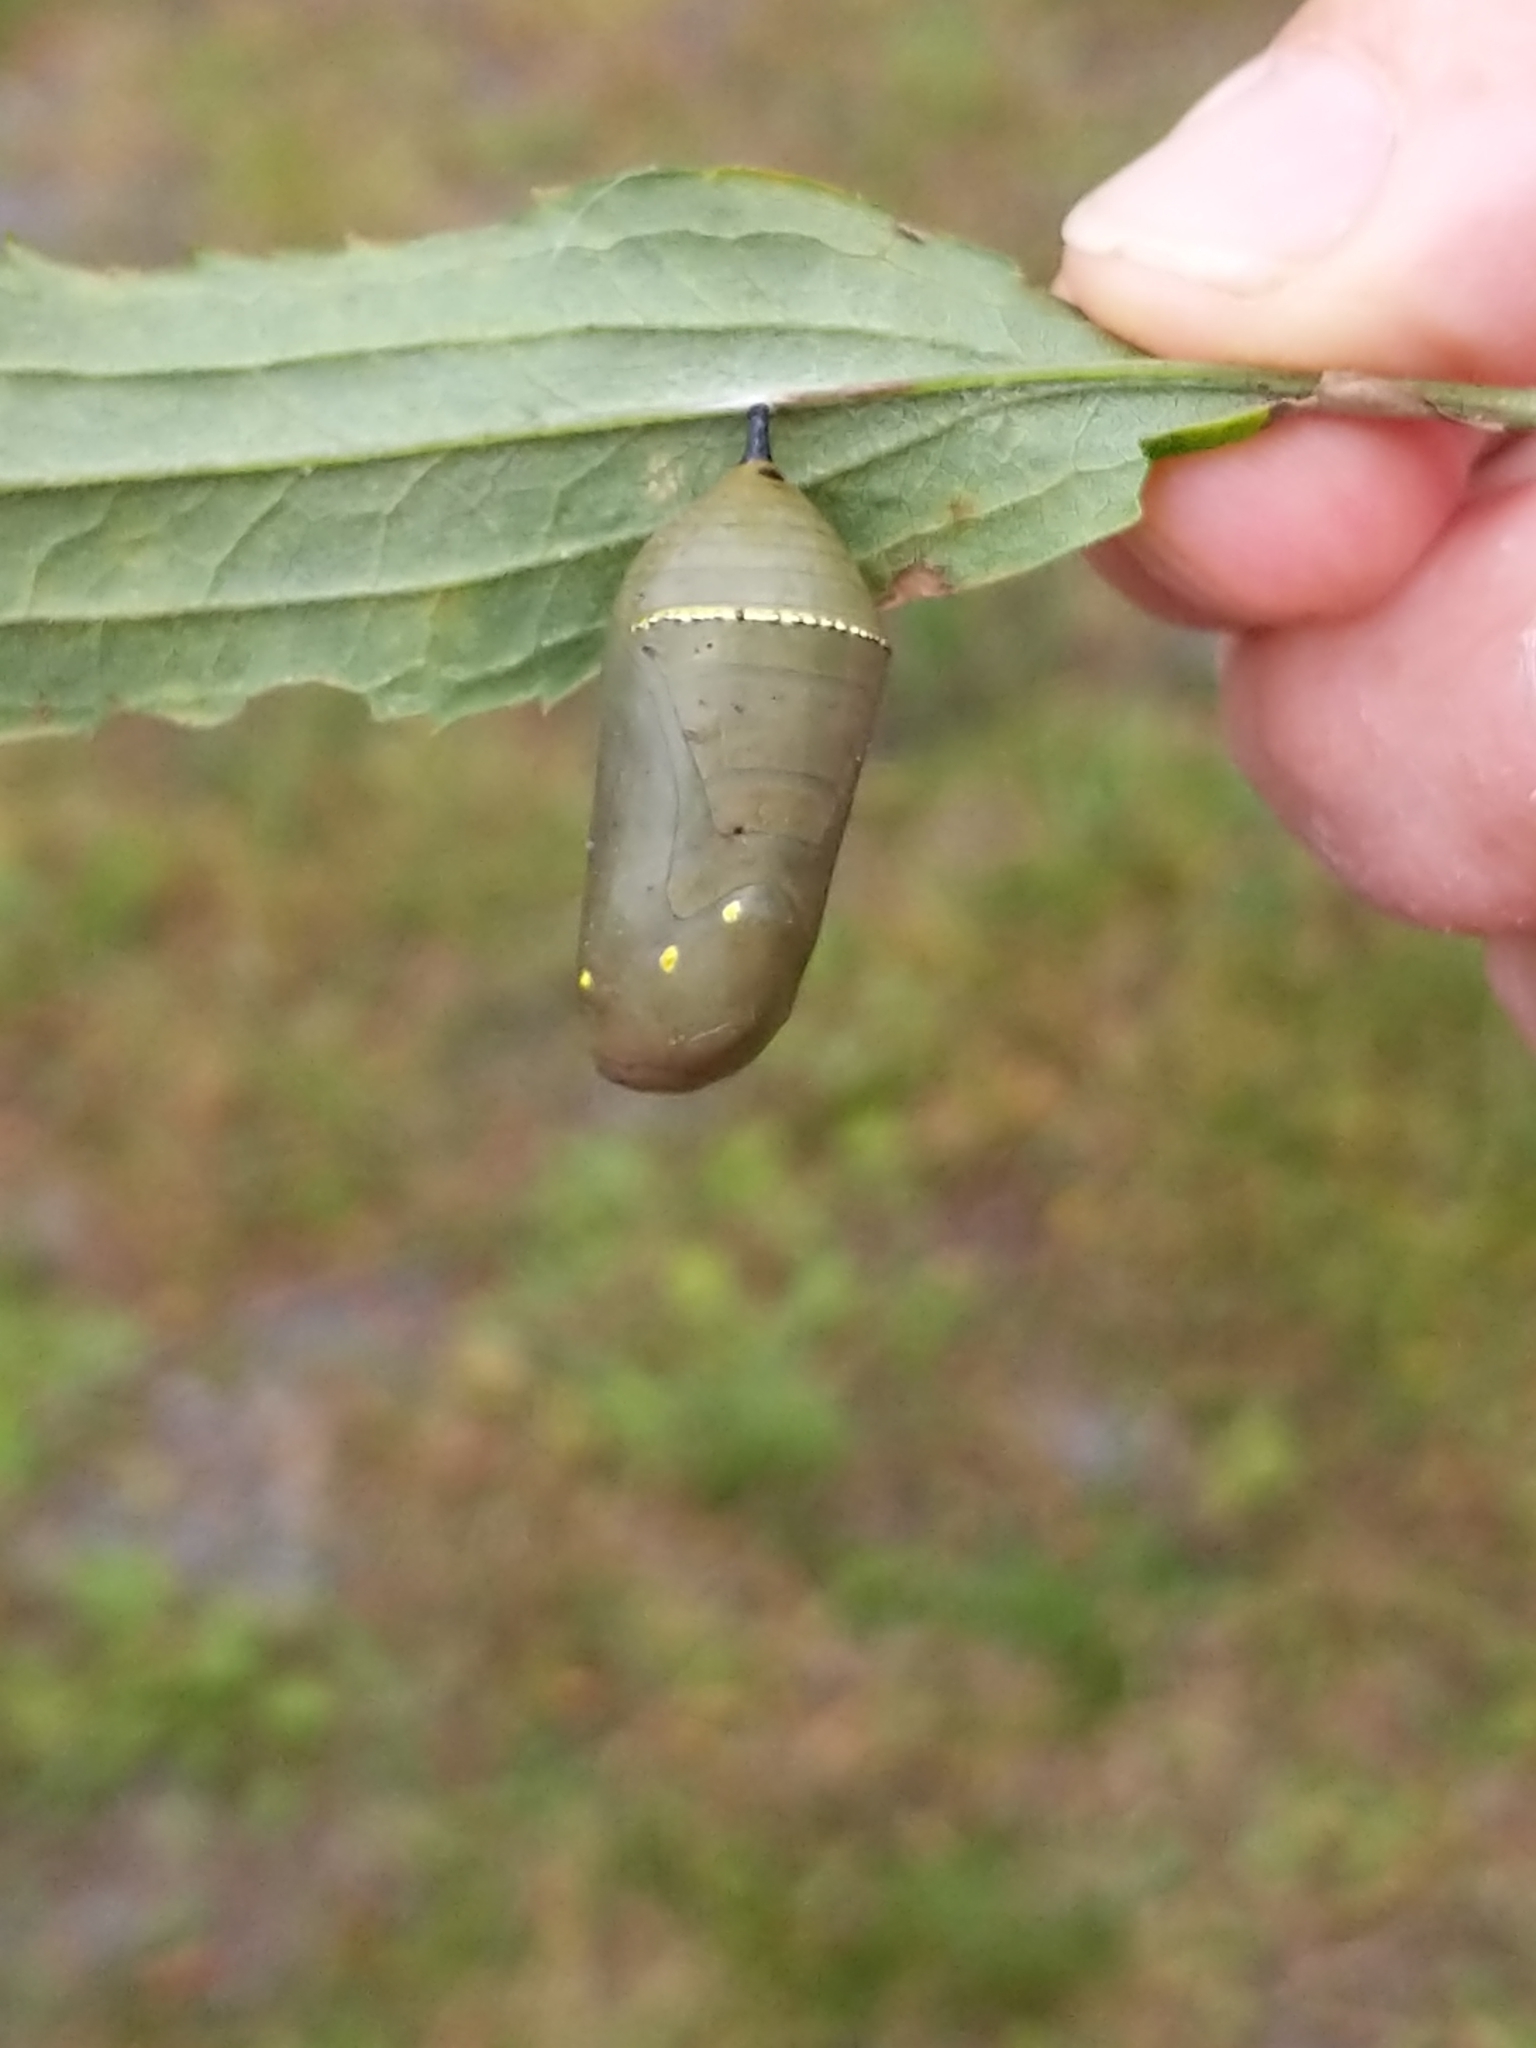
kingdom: Animalia
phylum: Arthropoda
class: Insecta
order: Lepidoptera
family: Nymphalidae
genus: Danaus
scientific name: Danaus plexippus
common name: Monarch
